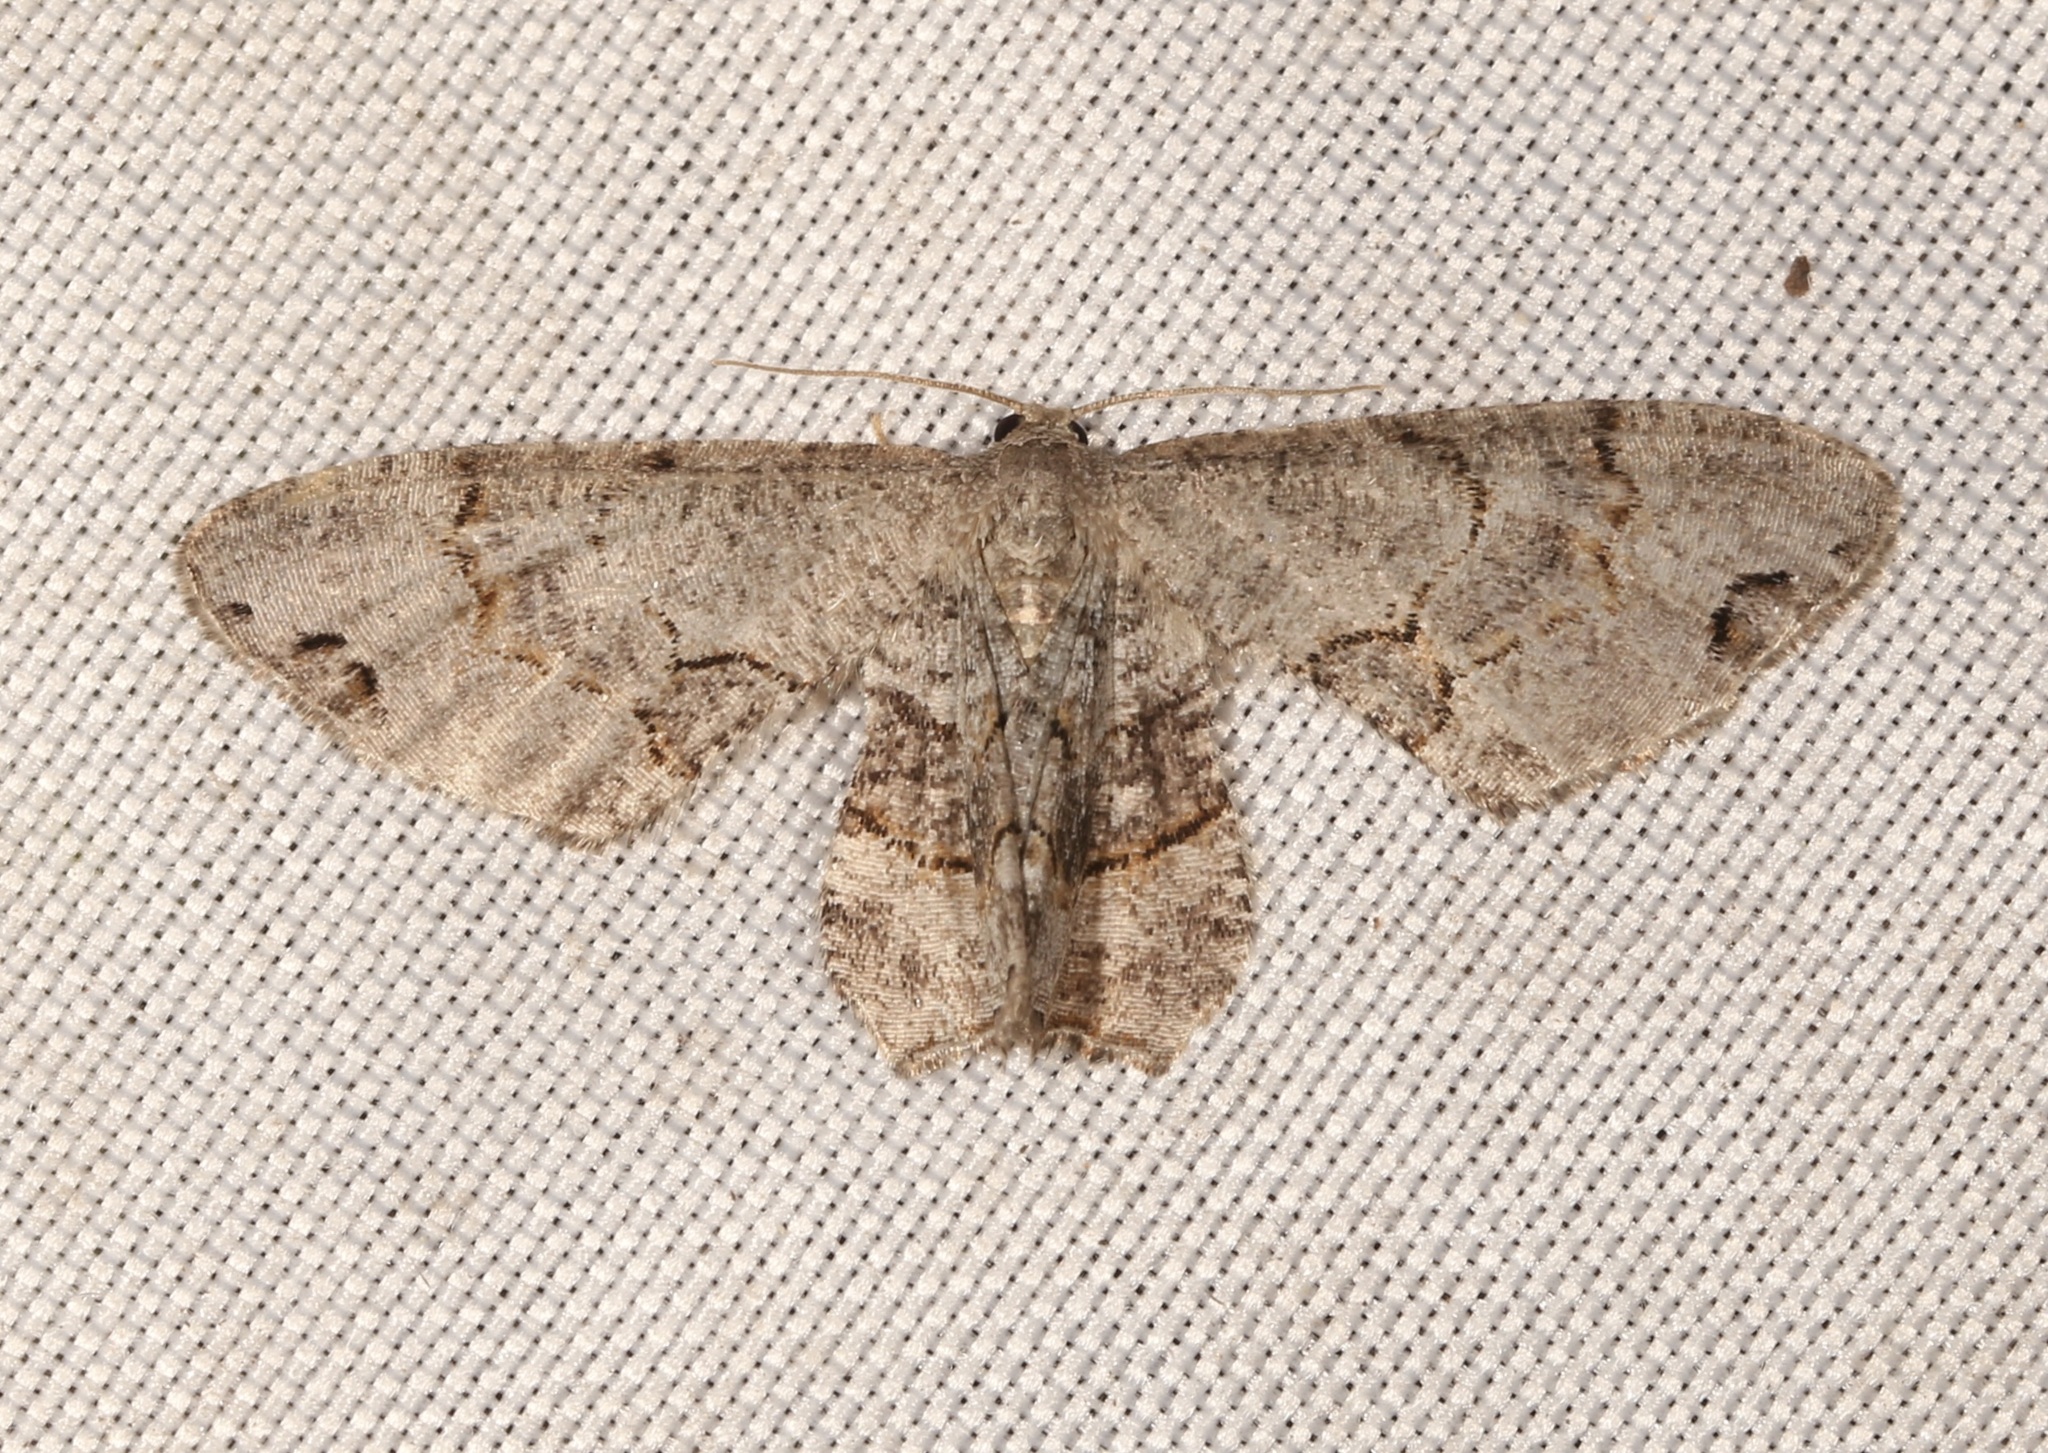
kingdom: Animalia
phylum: Arthropoda
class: Insecta
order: Lepidoptera
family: Uraniidae
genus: Epiplema
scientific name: Epiplema Callizzia amorata
